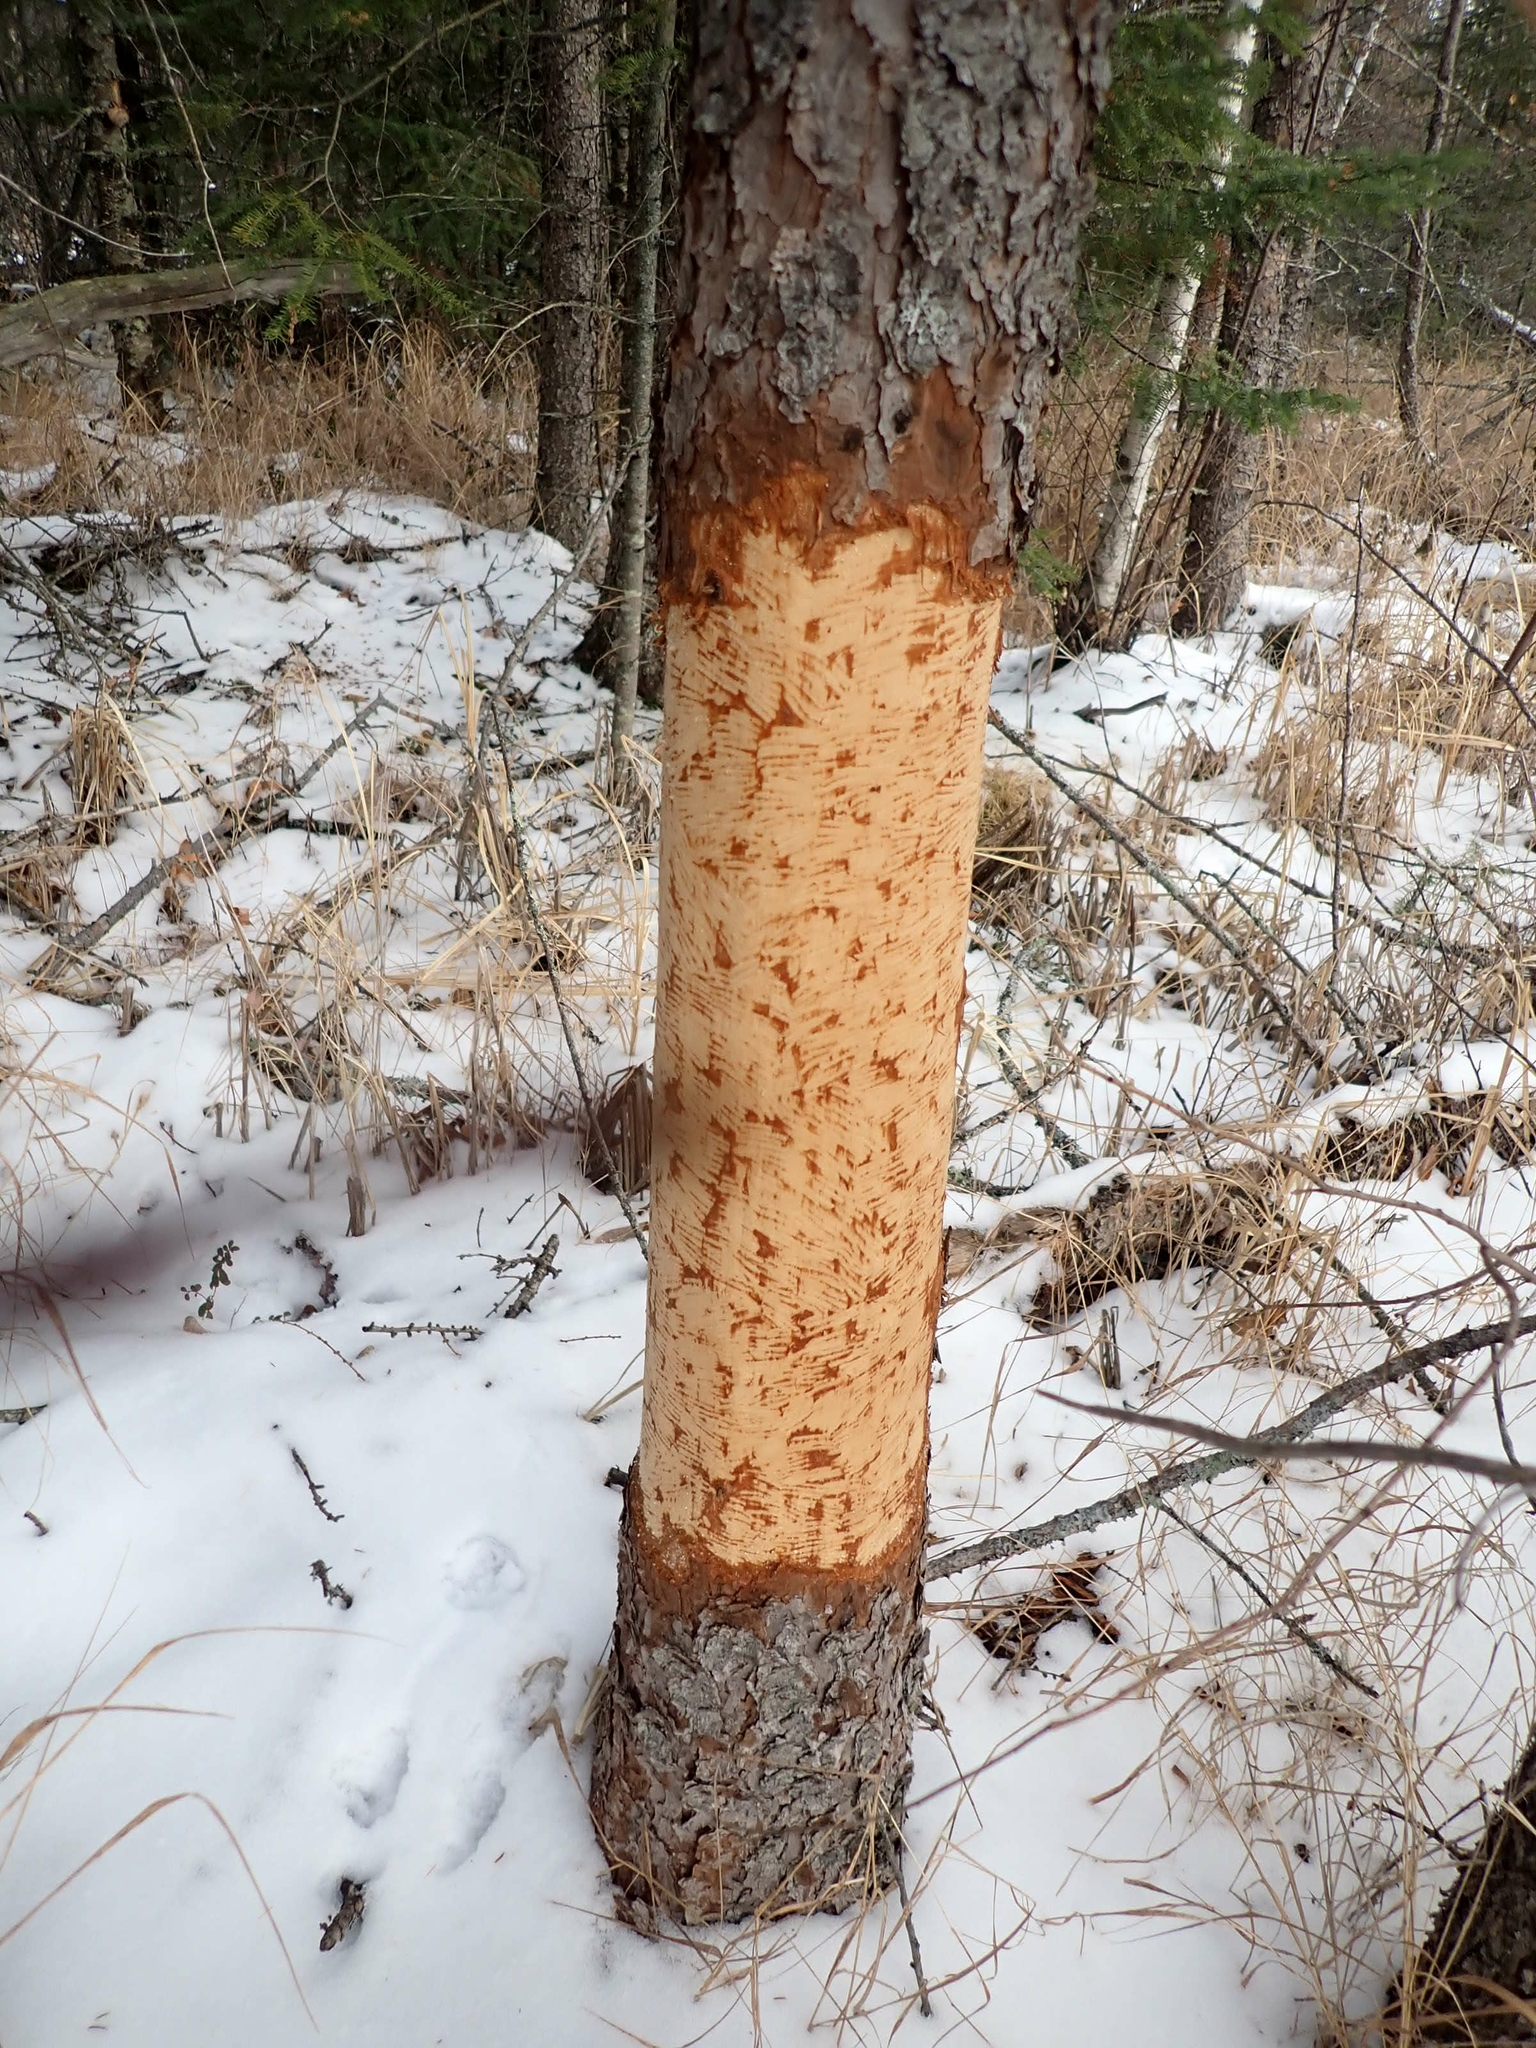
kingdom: Animalia
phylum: Chordata
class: Mammalia
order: Rodentia
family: Erethizontidae
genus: Erethizon
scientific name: Erethizon dorsatus
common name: North american porcupine
